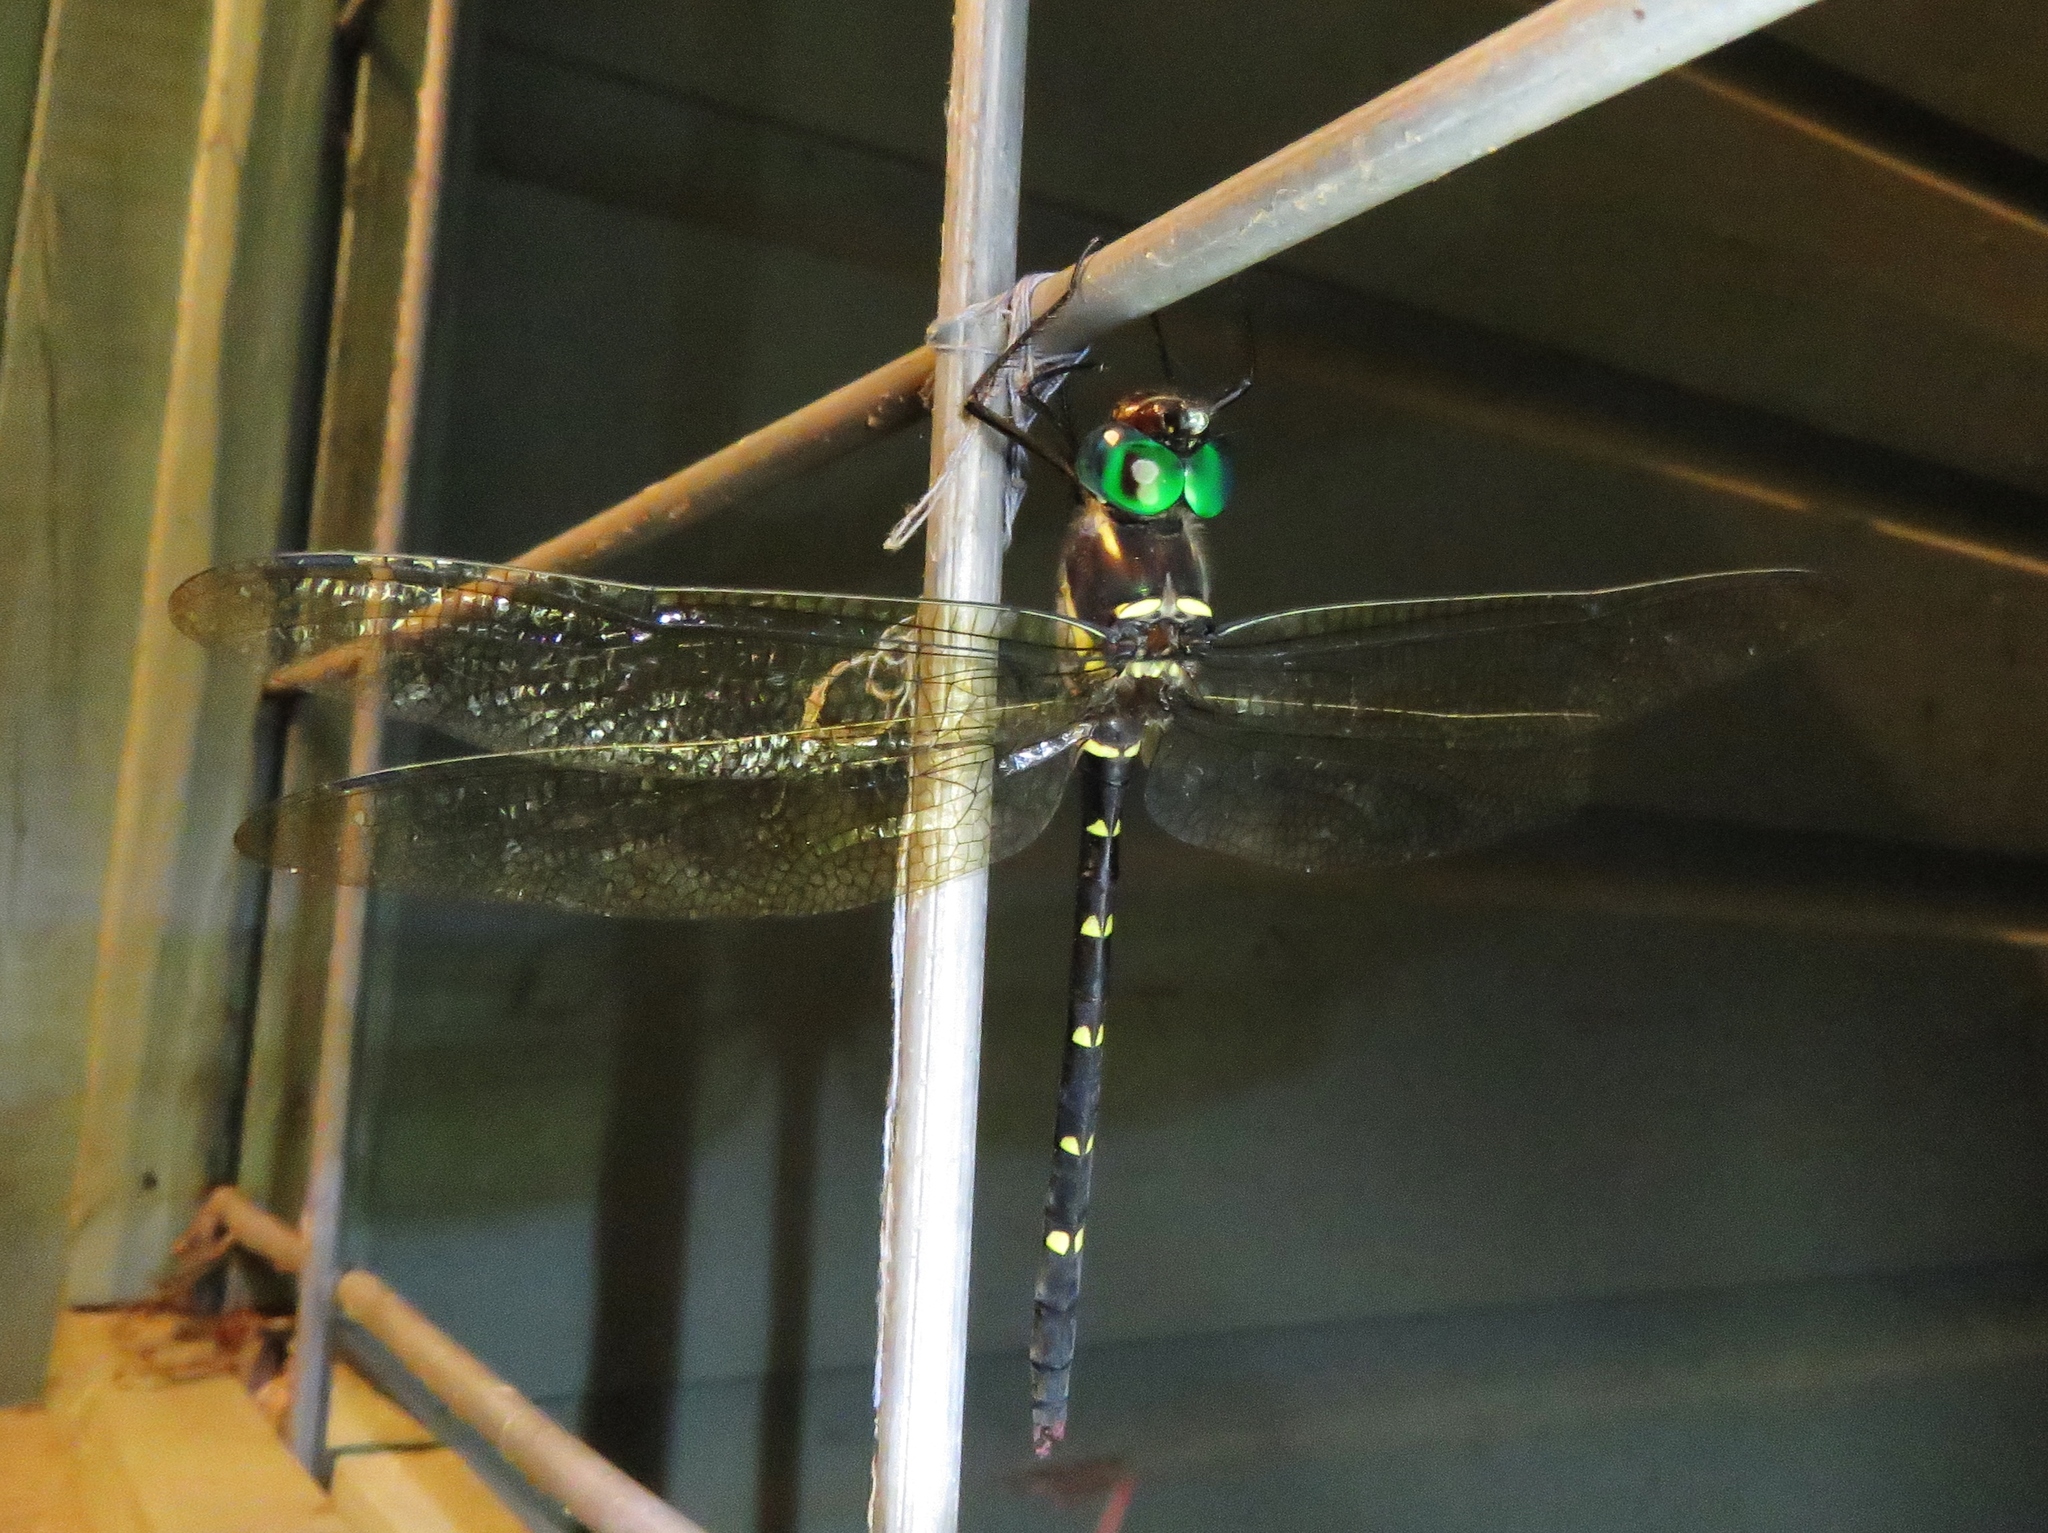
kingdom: Animalia
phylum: Arthropoda
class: Insecta
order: Odonata
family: Macromiidae
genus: Macromia
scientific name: Macromia illinoiensis
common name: Swift river cruiser
